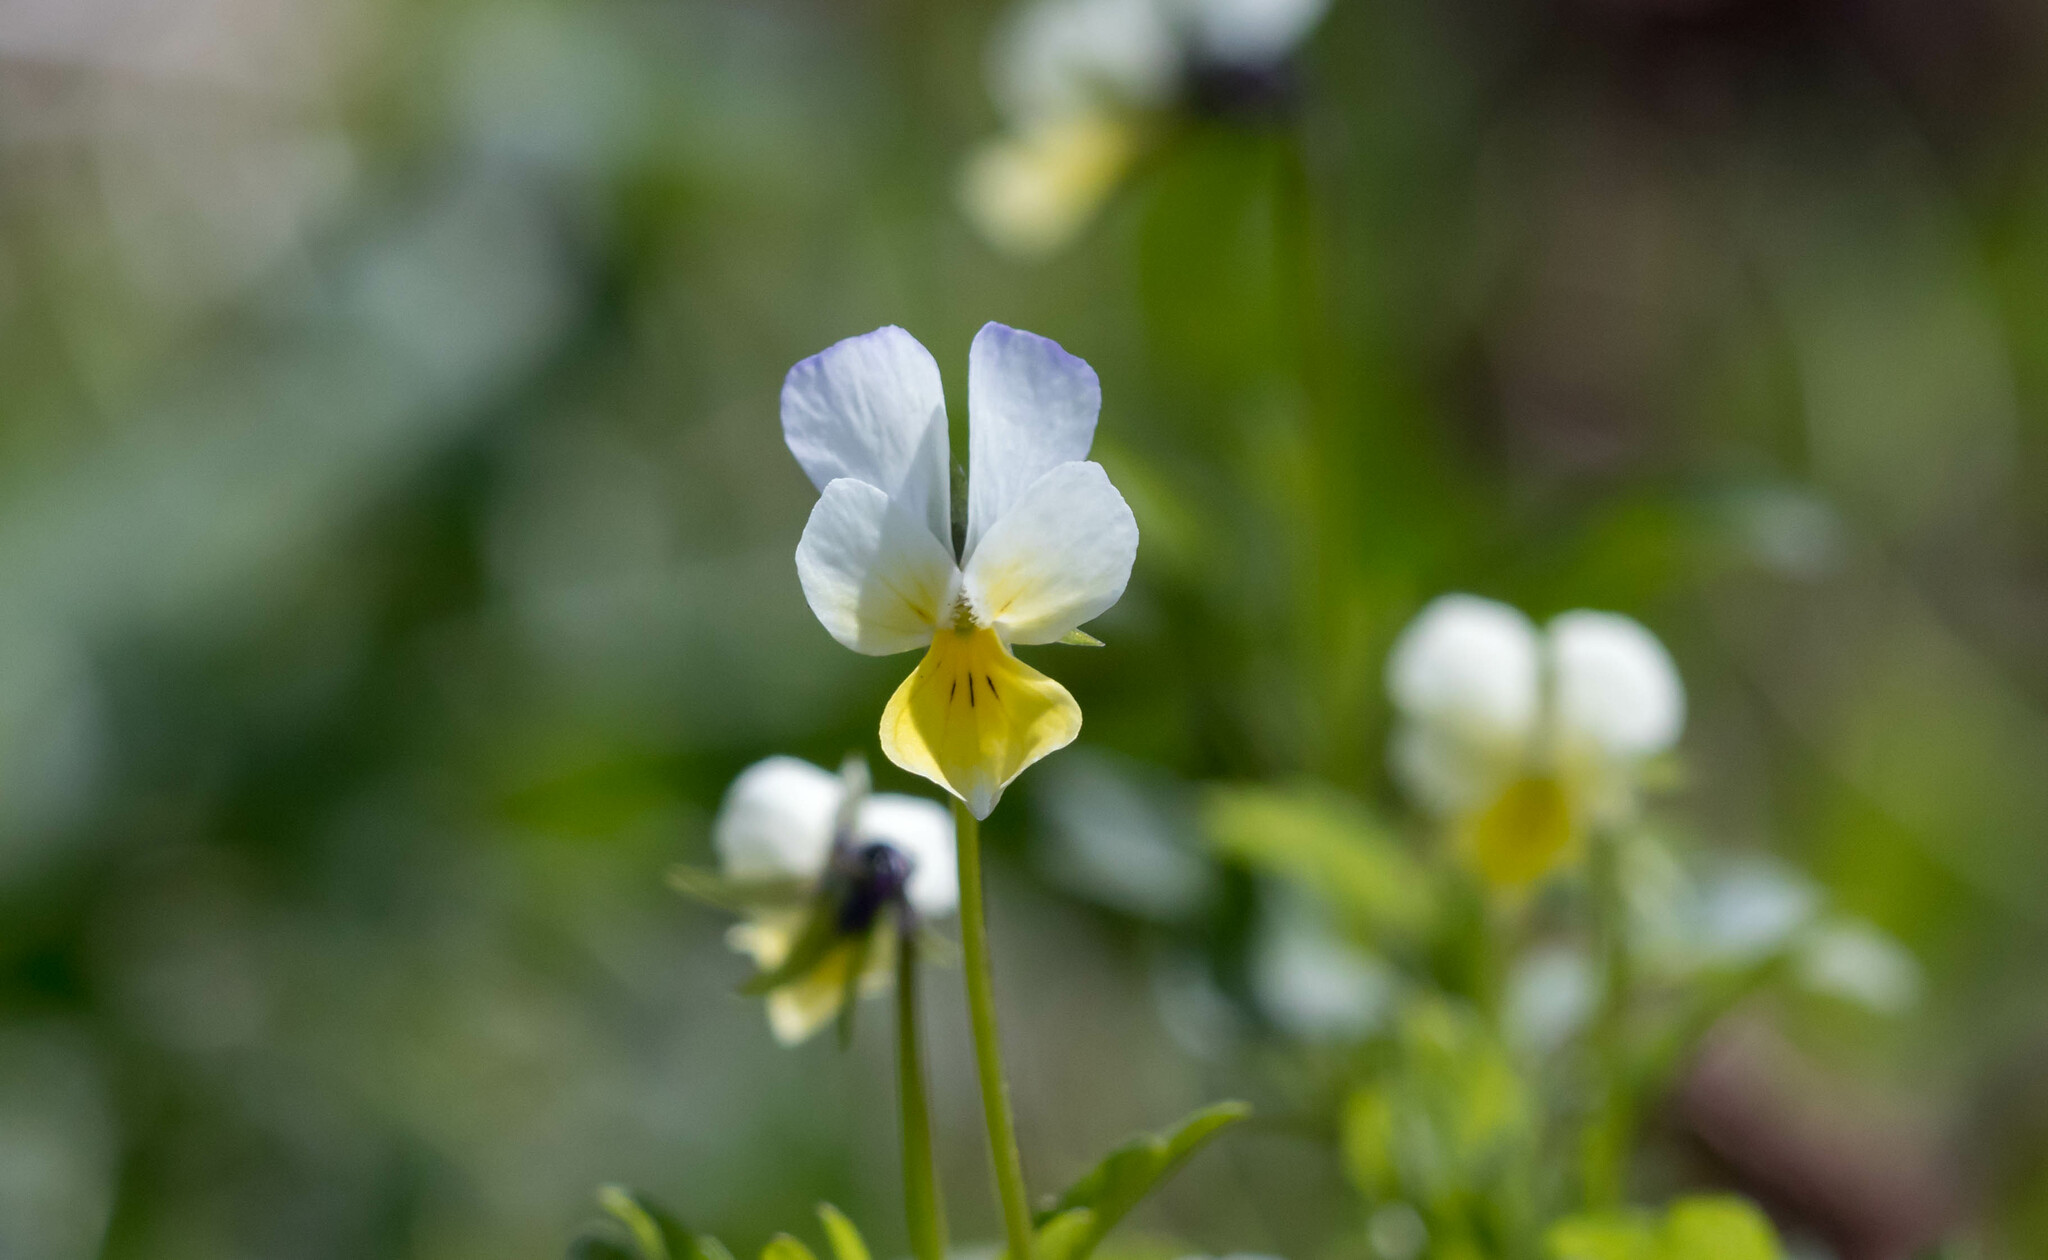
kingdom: Plantae
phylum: Tracheophyta
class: Magnoliopsida
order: Malpighiales
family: Violaceae
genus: Viola
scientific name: Viola contempta
